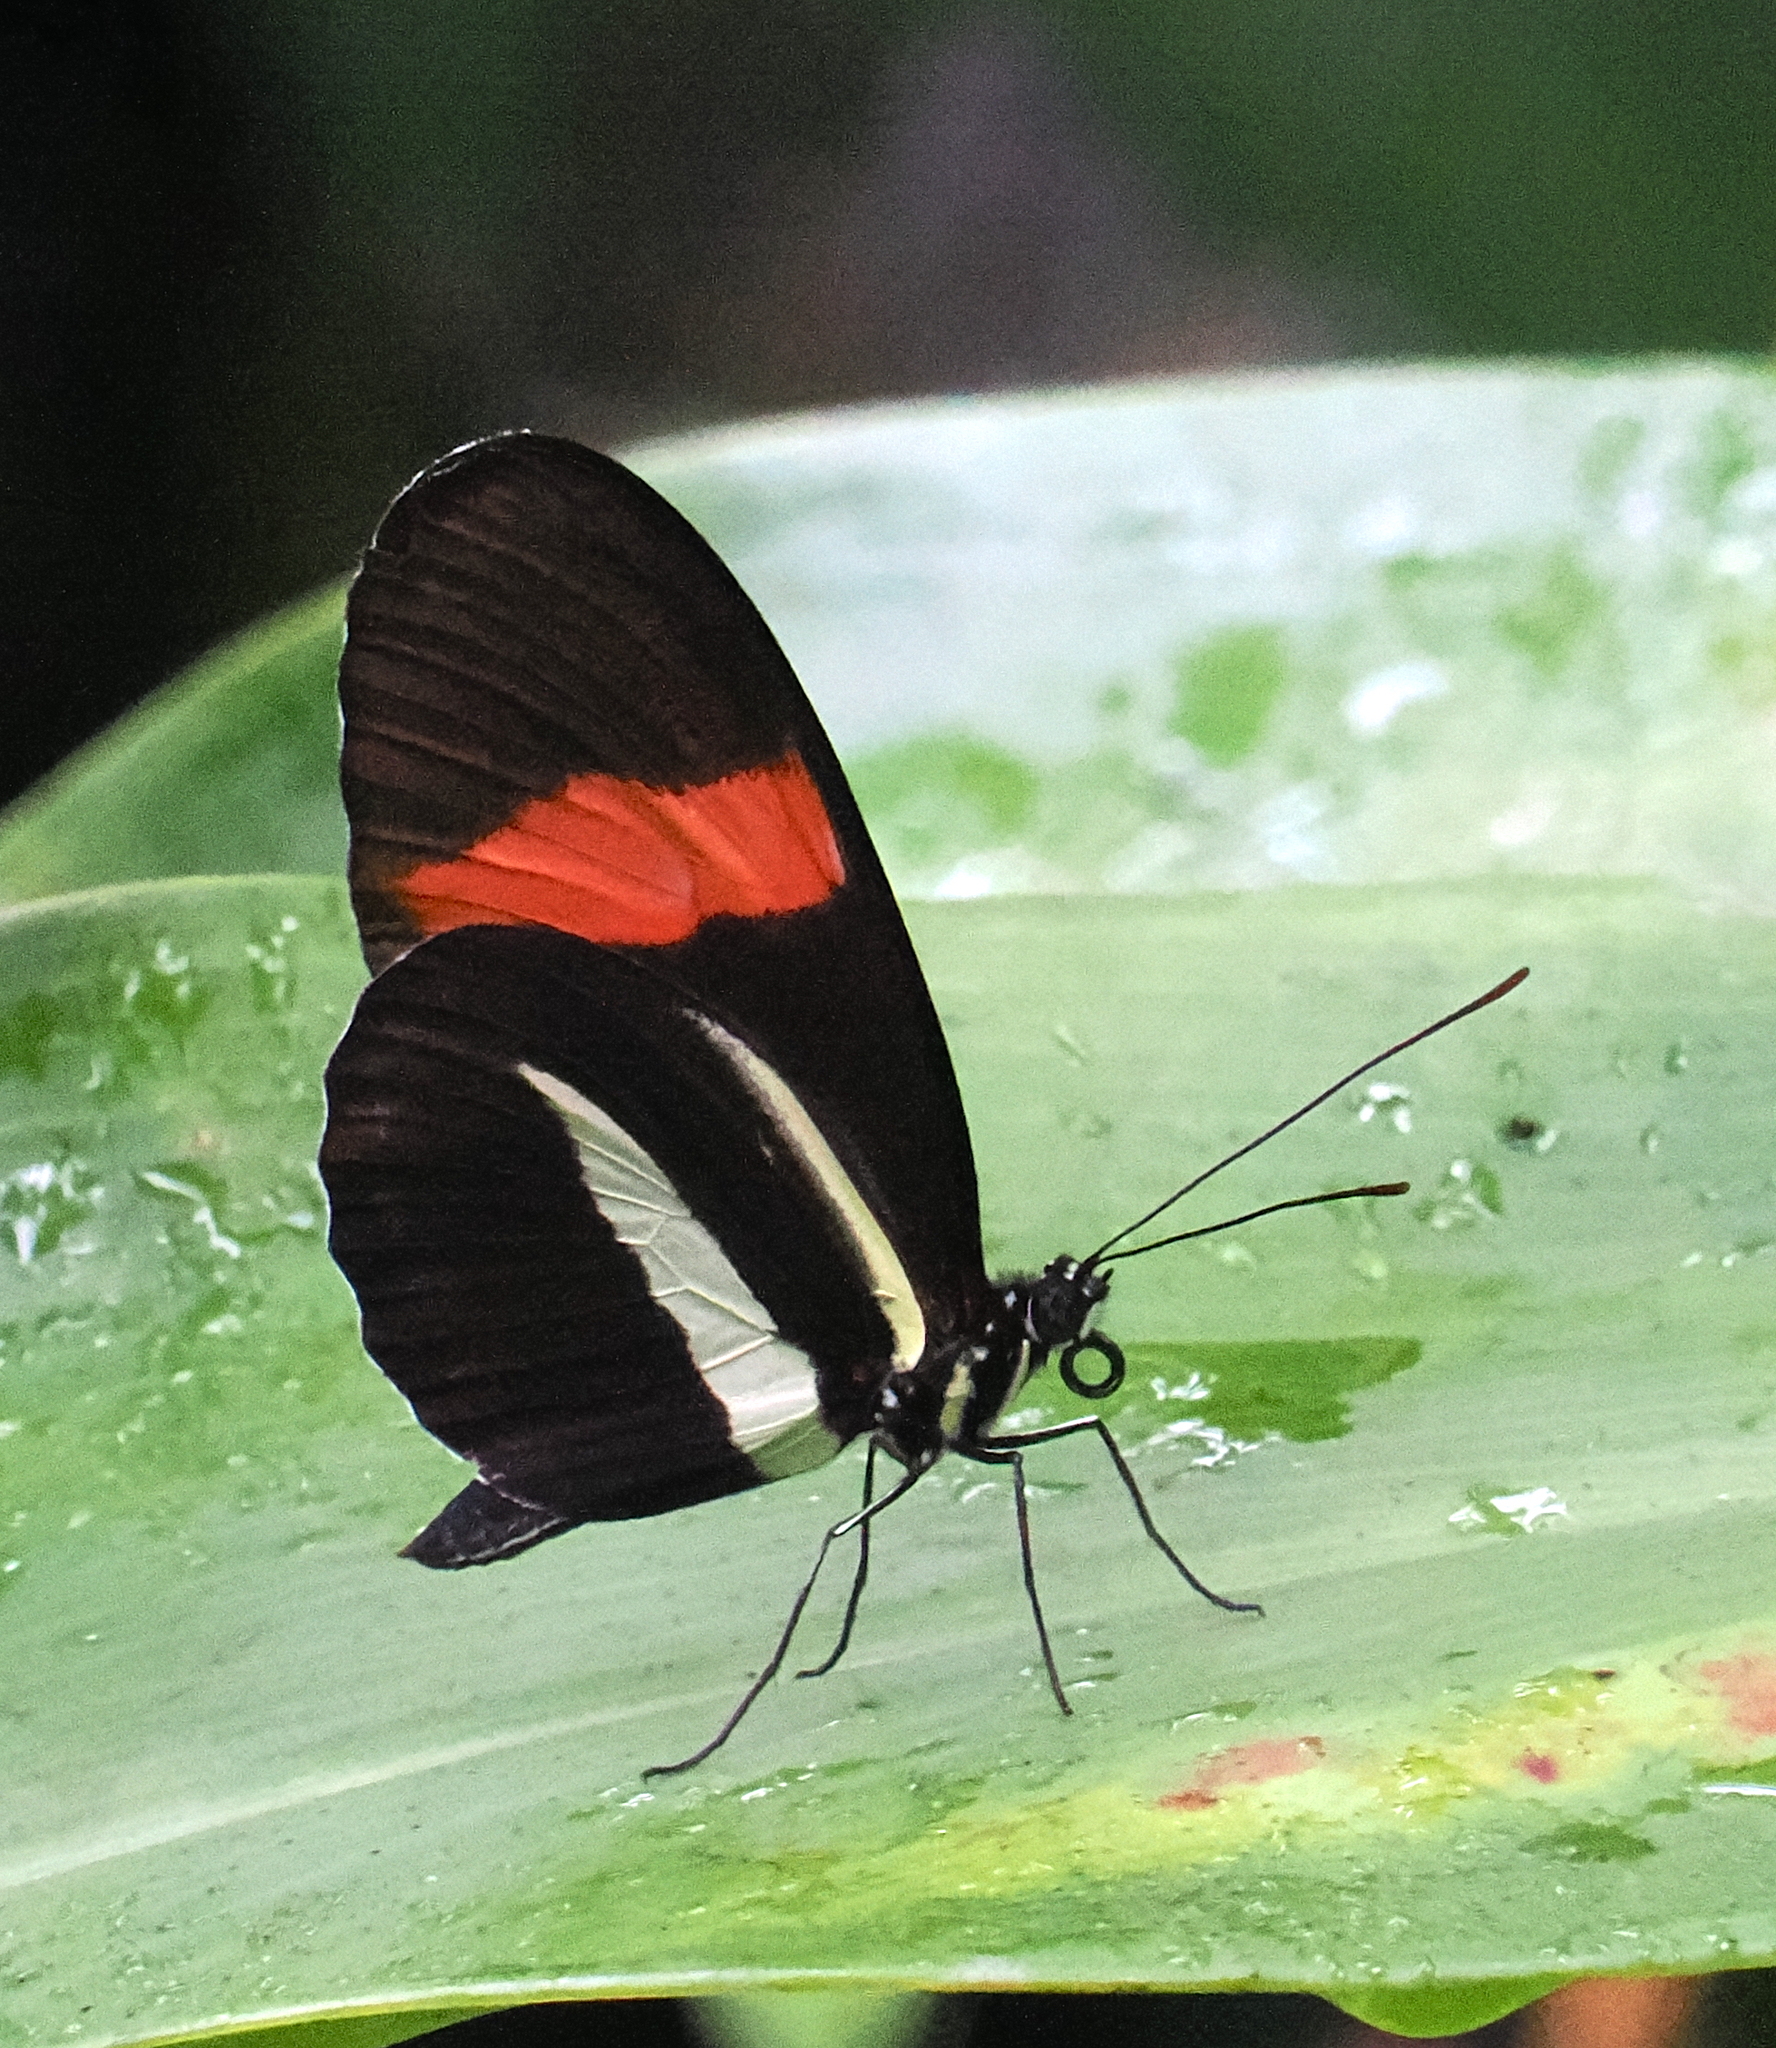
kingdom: Animalia
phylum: Arthropoda
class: Insecta
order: Lepidoptera
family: Nymphalidae
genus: Heliconius
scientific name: Heliconius melpomene
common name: Postman
